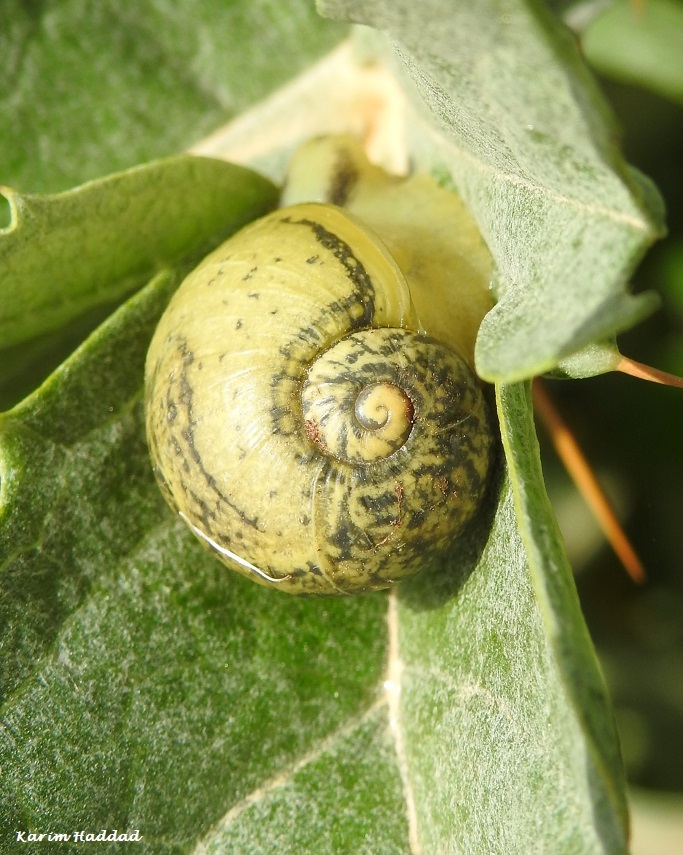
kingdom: Animalia
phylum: Mollusca
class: Gastropoda
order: Stylommatophora
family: Helicidae
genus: Cantareus
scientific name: Cantareus apertus
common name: Green gardensnail
